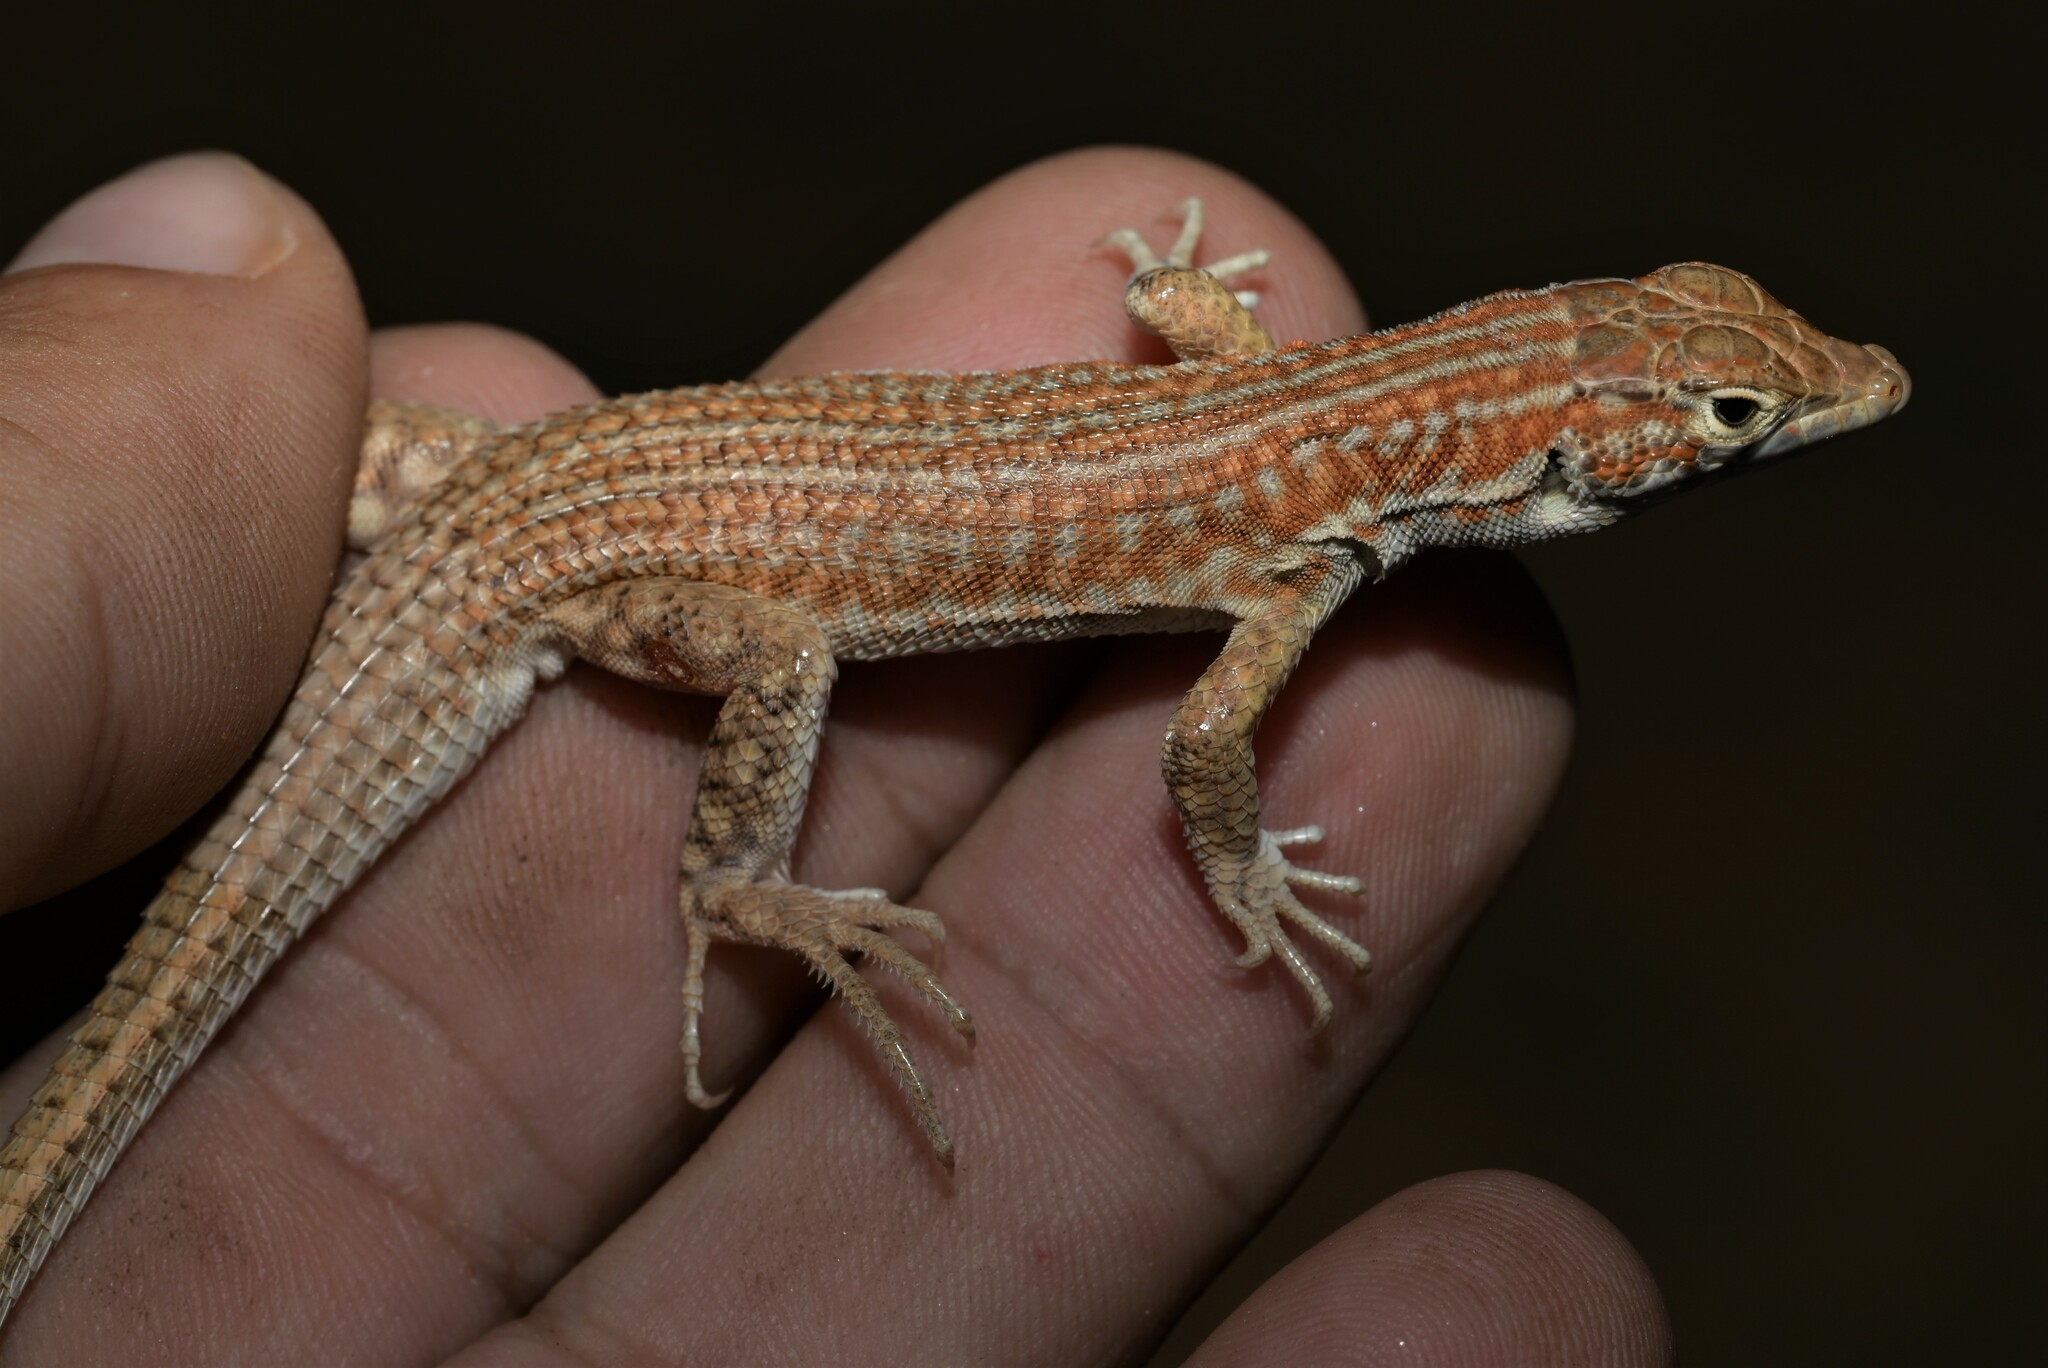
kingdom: Animalia
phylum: Chordata
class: Squamata
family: Lacertidae
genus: Acanthodactylus
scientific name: Acanthodactylus opheodurus
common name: Arnold's fringe-fingered lizard
